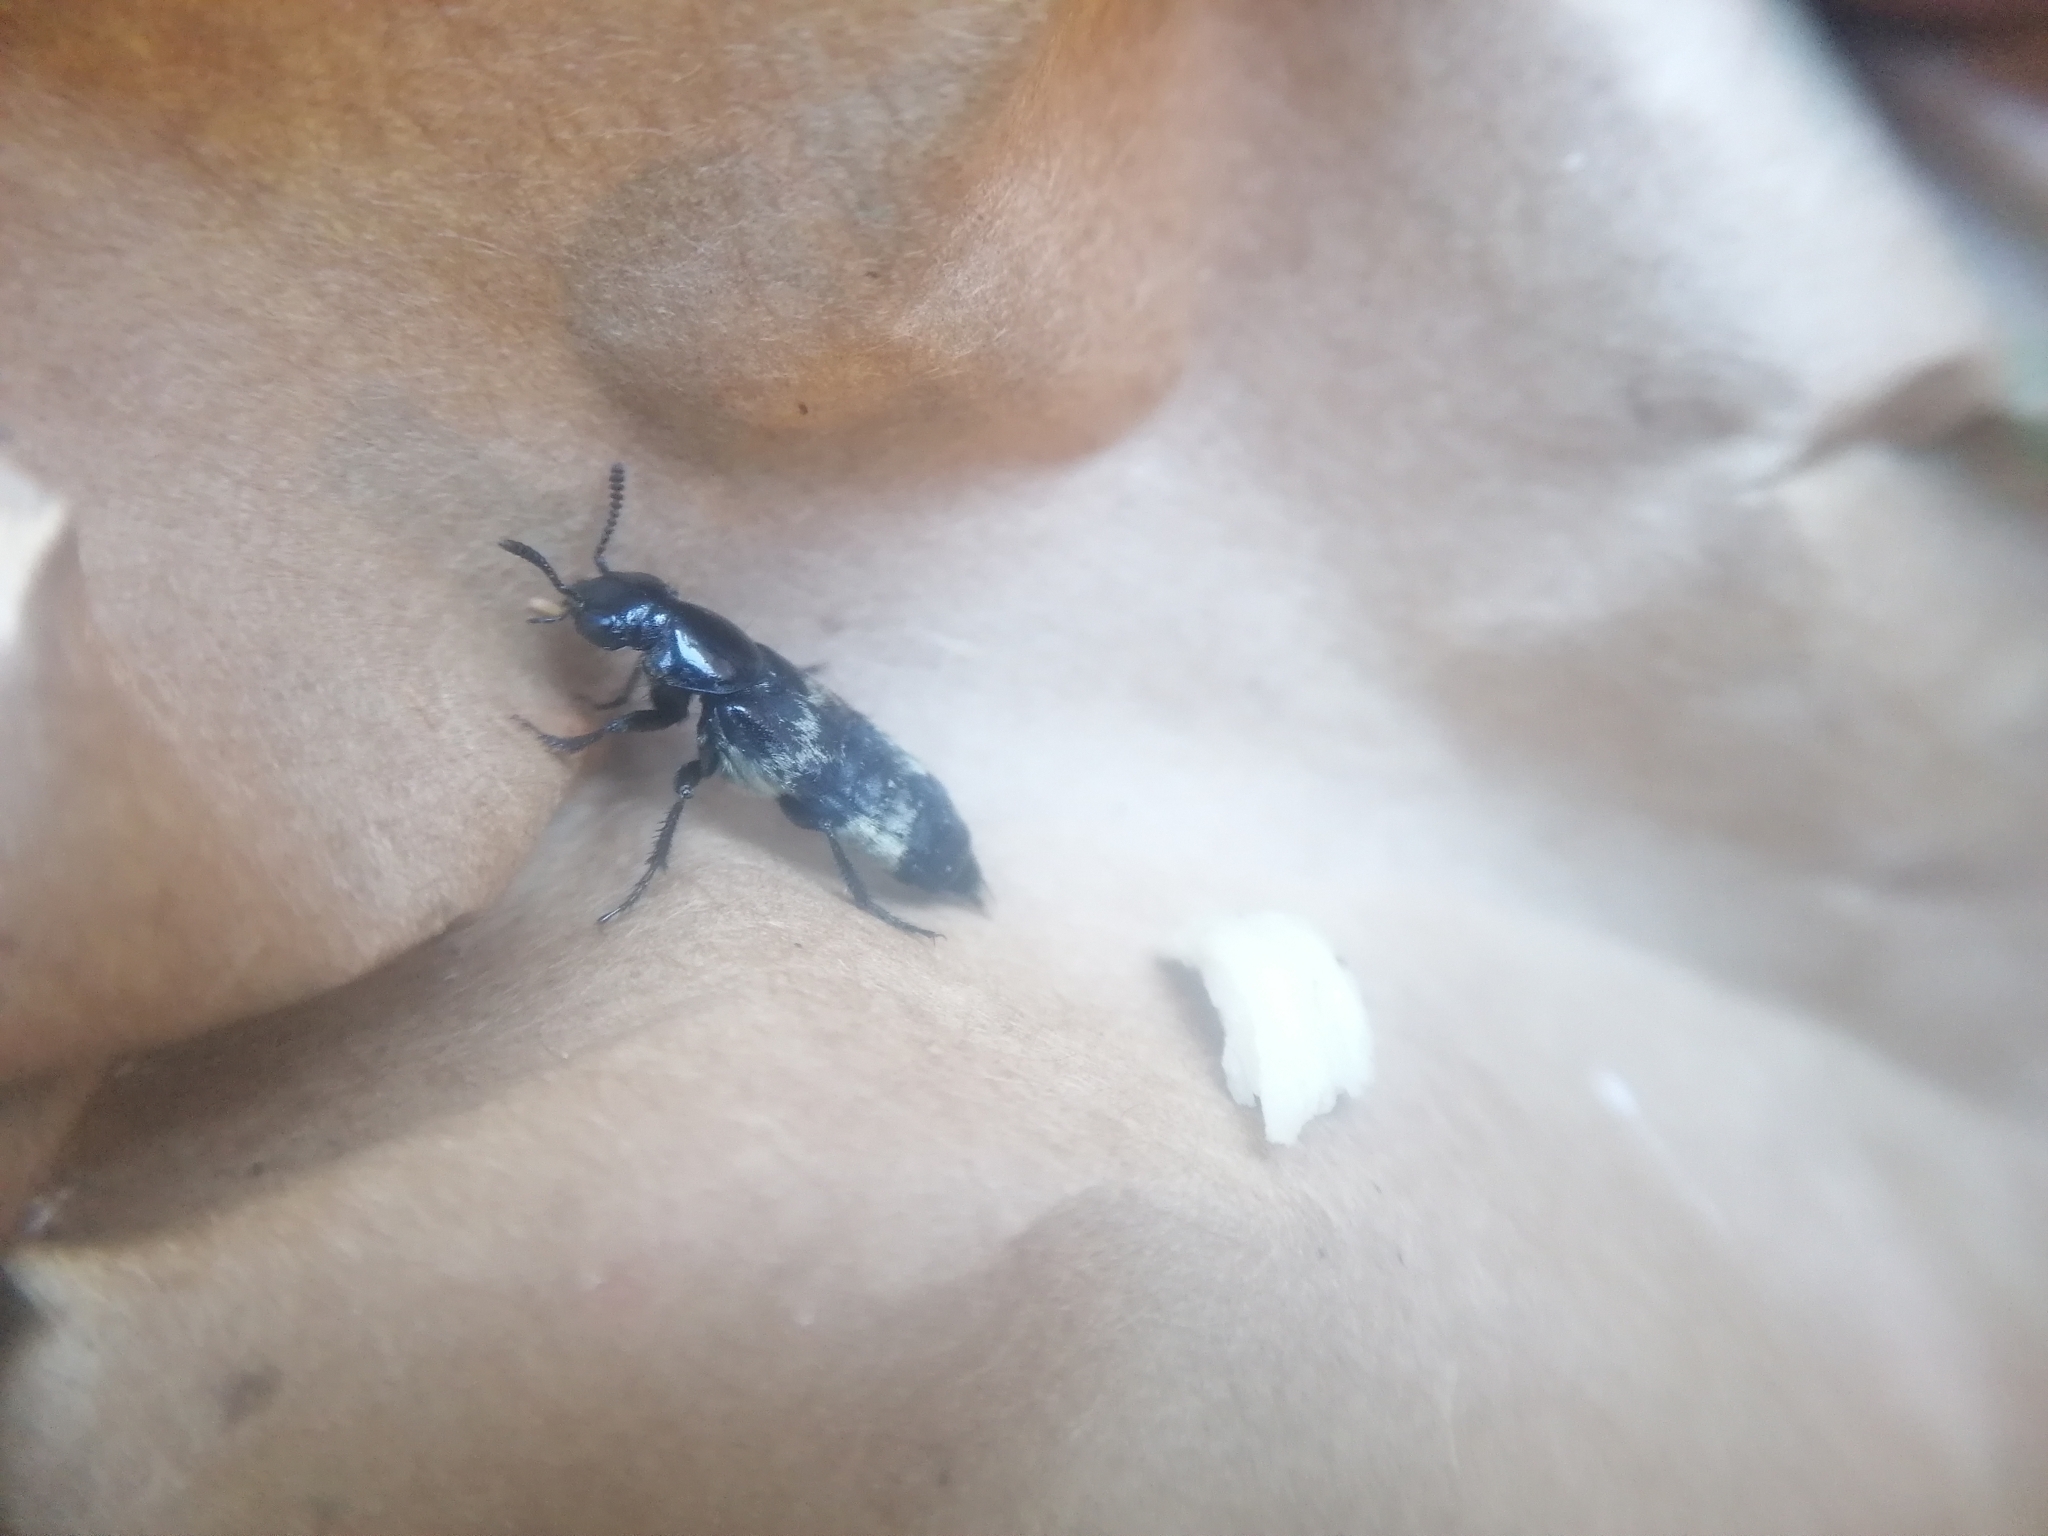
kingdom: Animalia
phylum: Arthropoda
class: Insecta
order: Coleoptera
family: Staphylinidae
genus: Creophilus
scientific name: Creophilus maxillosus
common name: Hairy rove beetle
